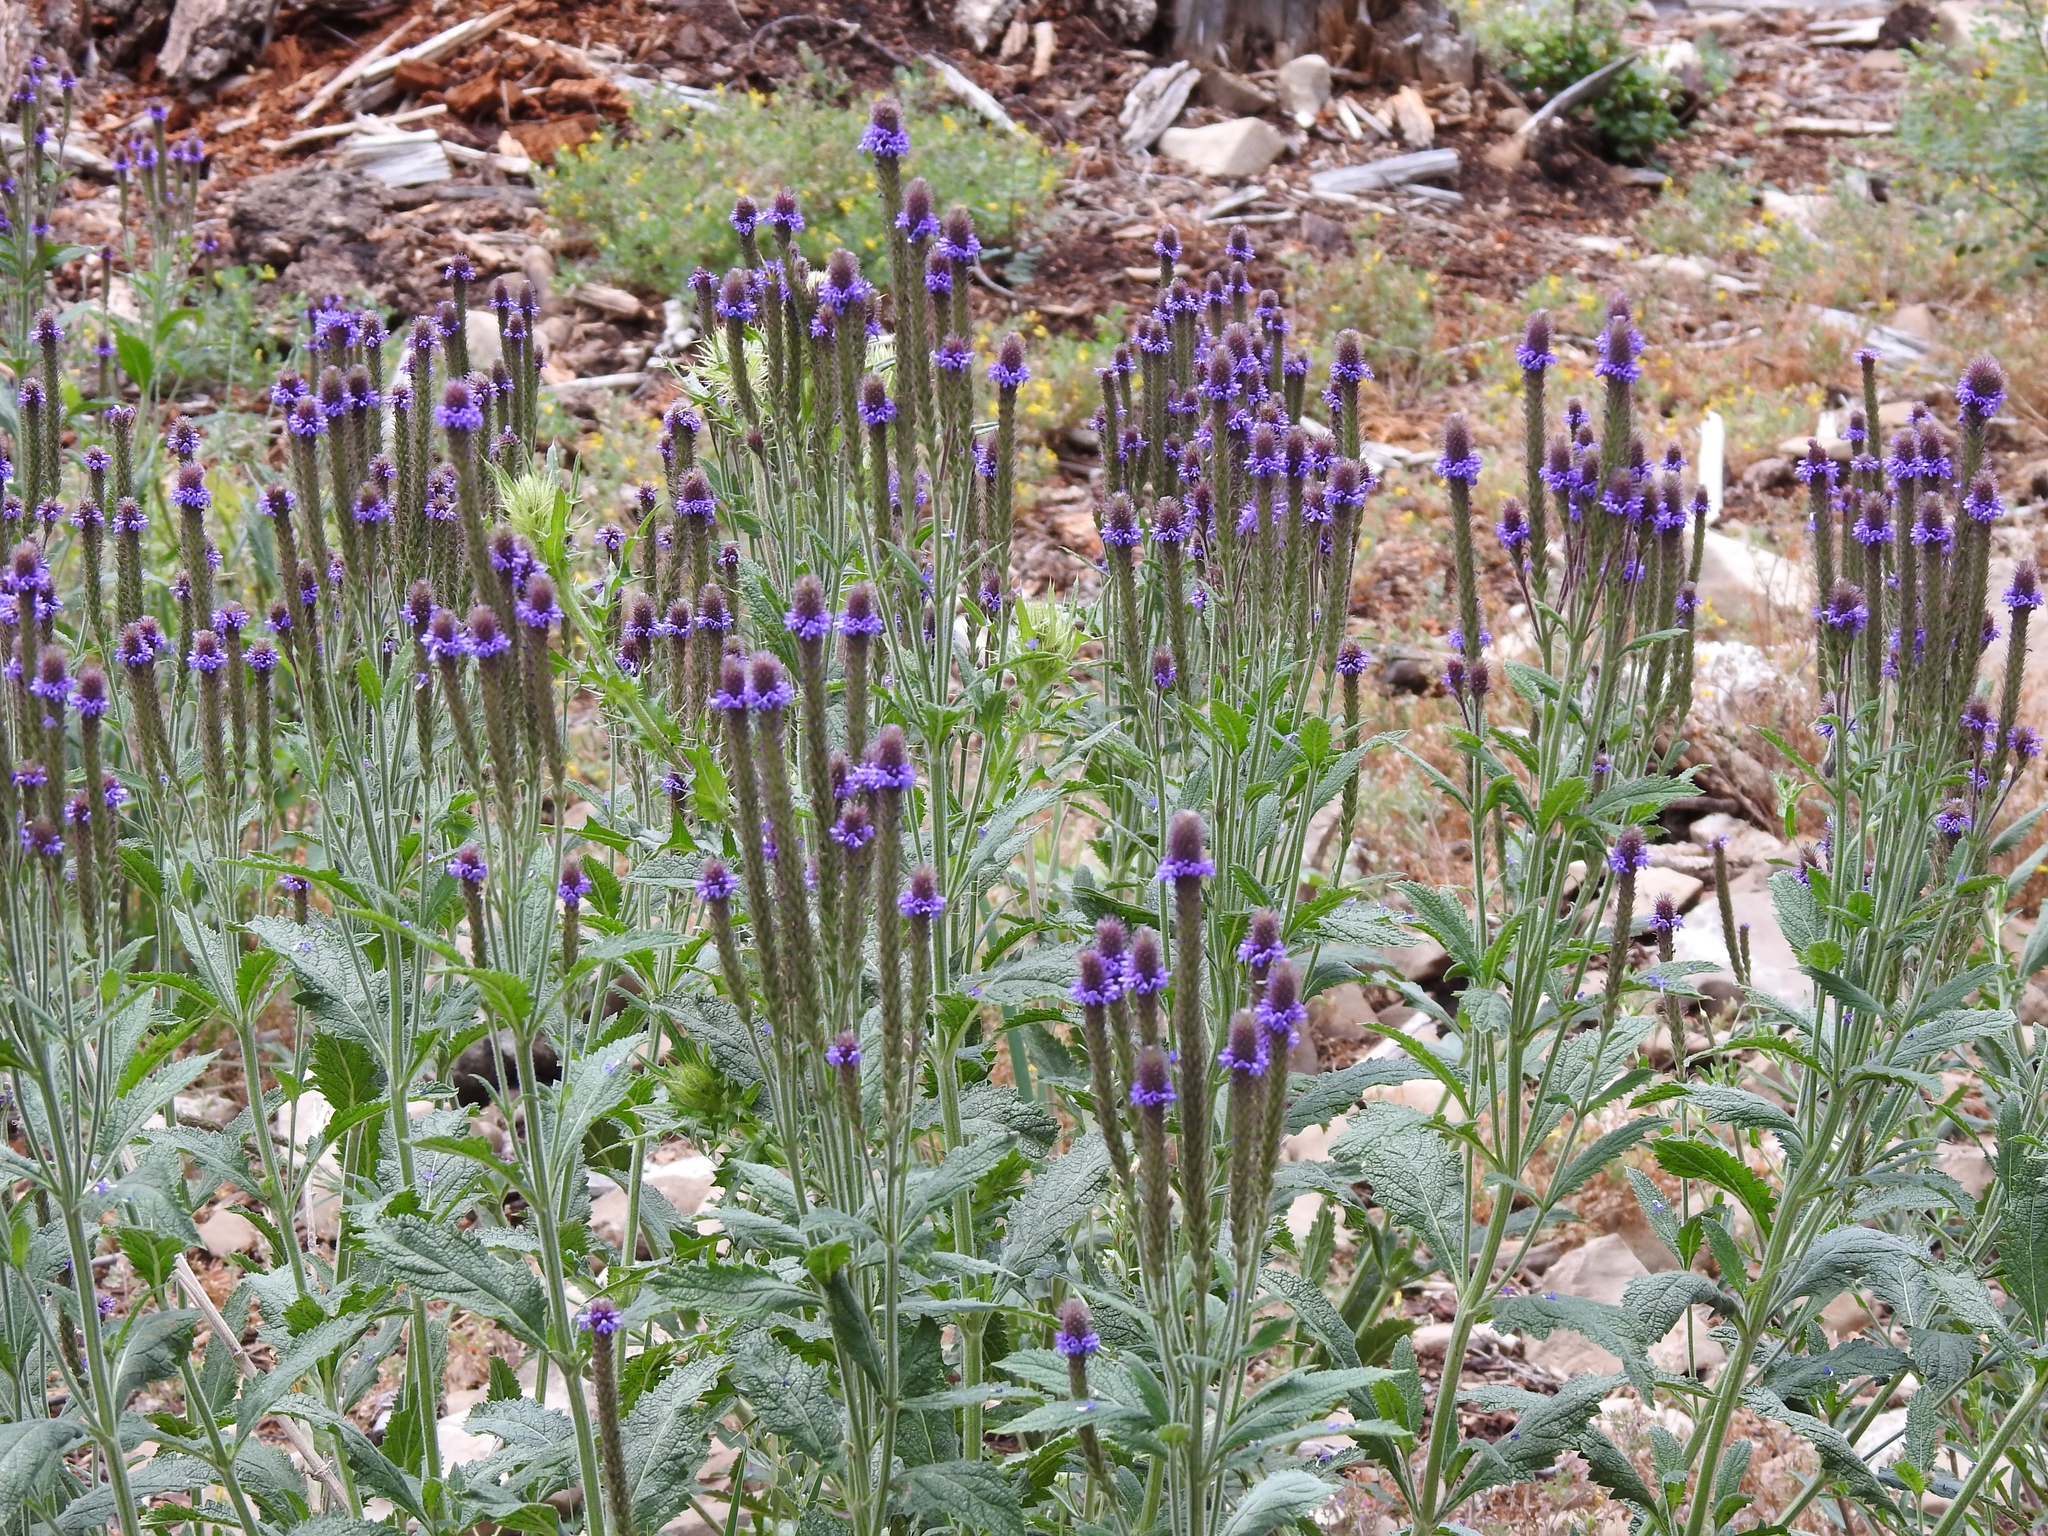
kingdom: Plantae
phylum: Tracheophyta
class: Magnoliopsida
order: Lamiales
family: Verbenaceae
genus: Verbena
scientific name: Verbena macdougalii
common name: New mexico vervain
